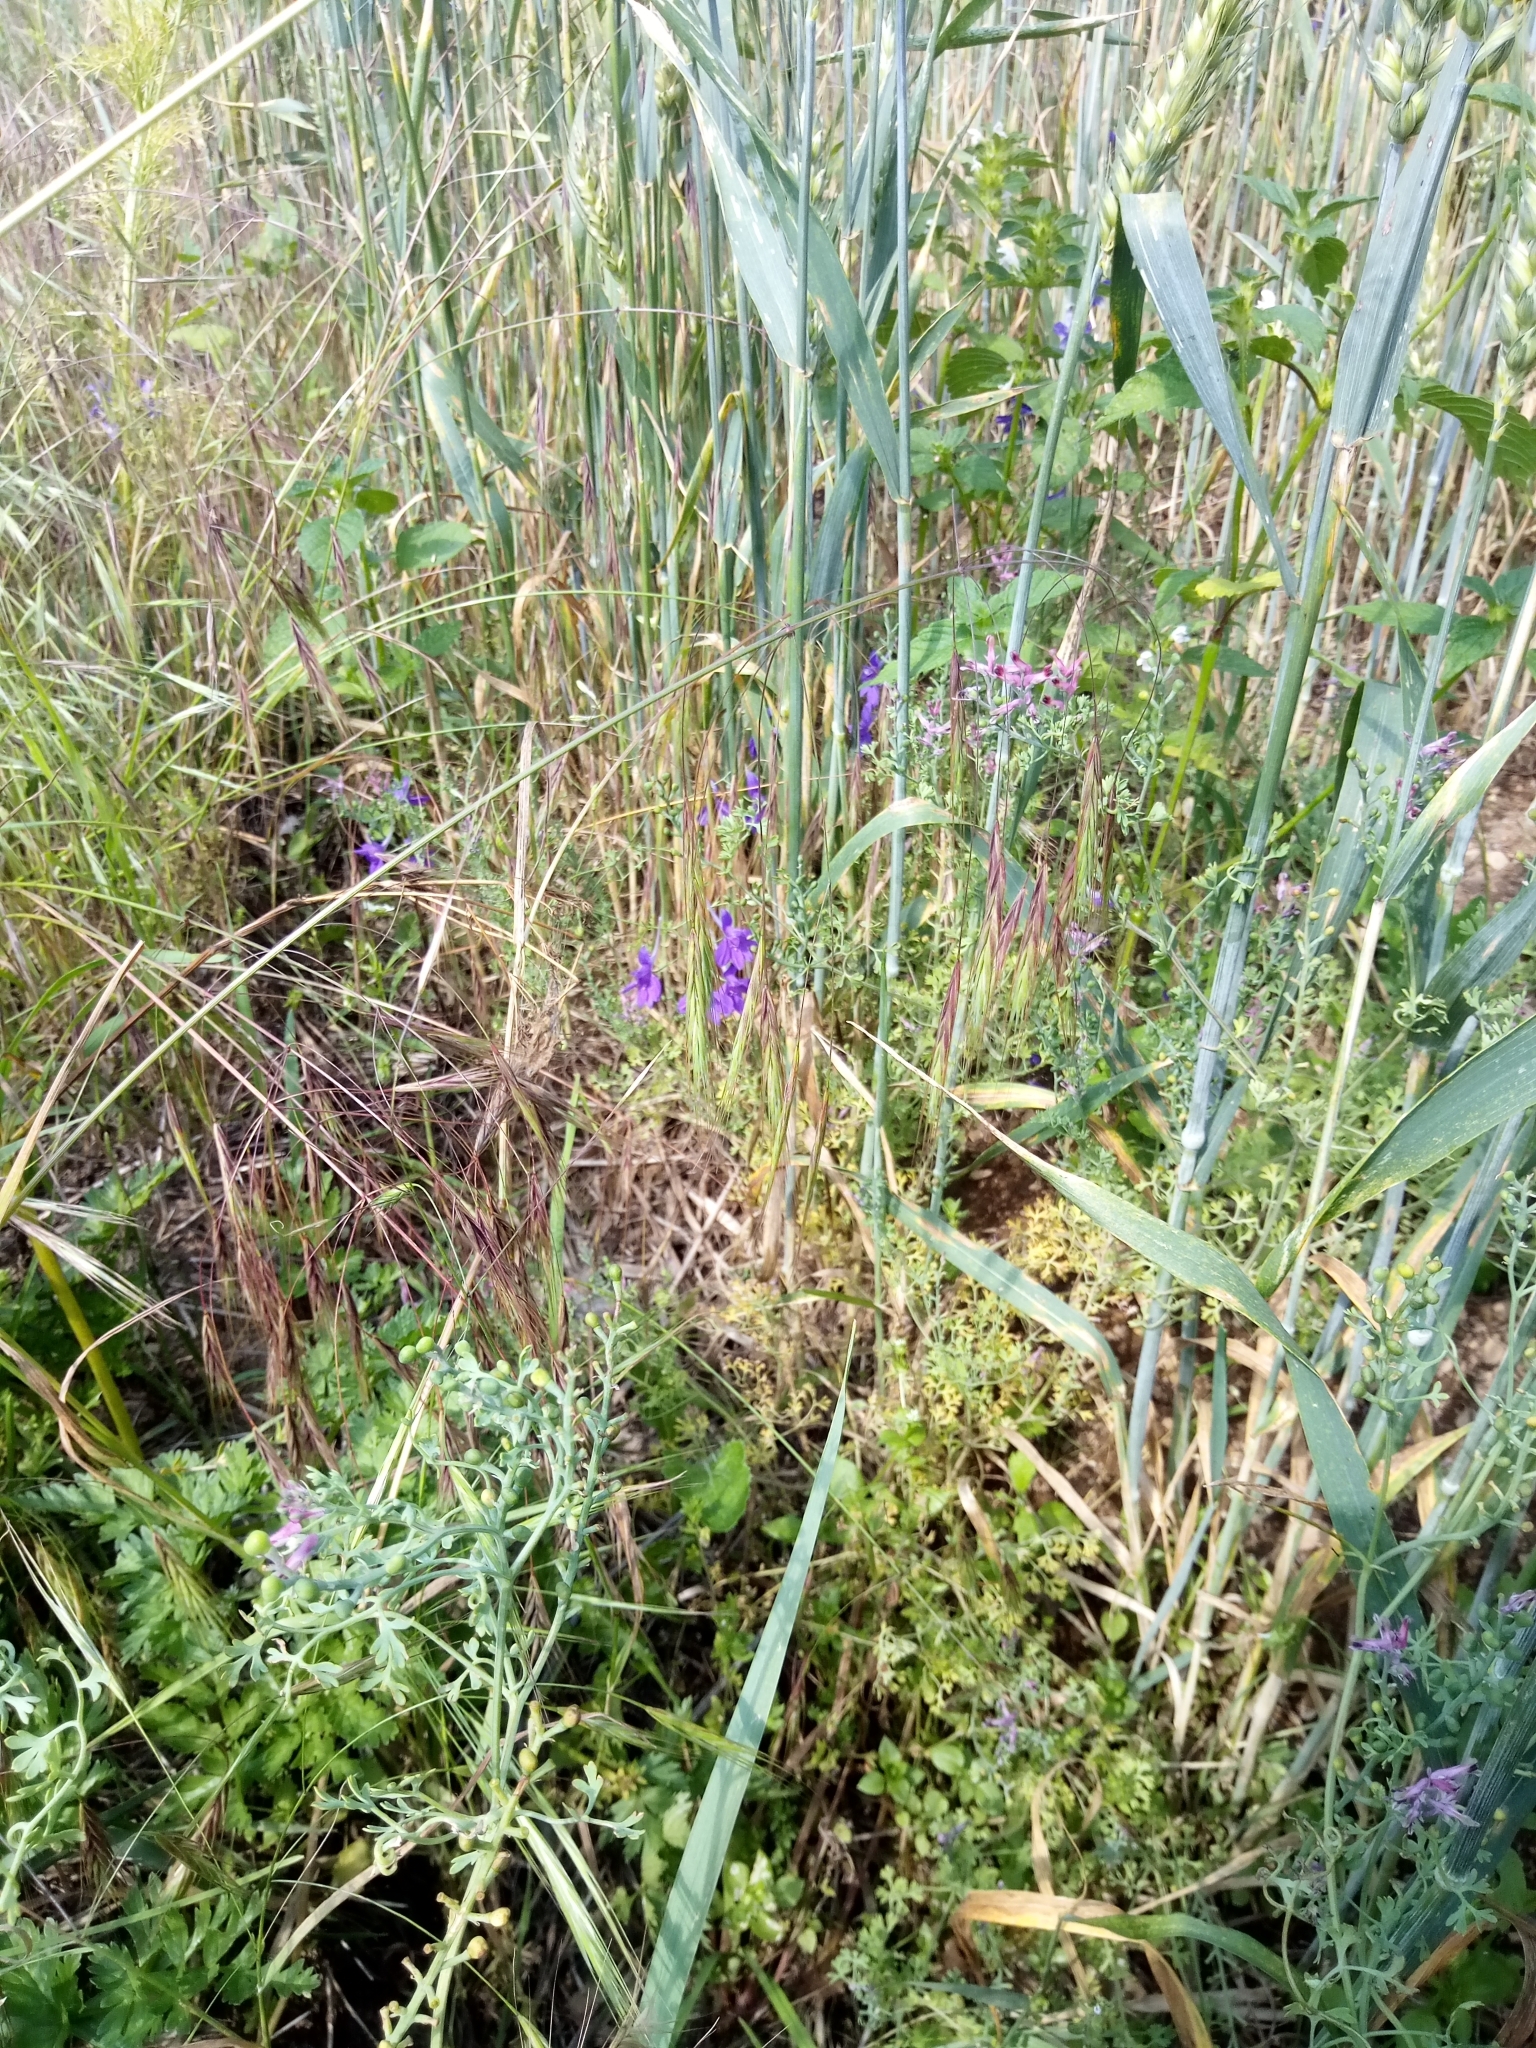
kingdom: Plantae
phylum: Tracheophyta
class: Liliopsida
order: Poales
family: Poaceae
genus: Bromus
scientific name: Bromus sterilis
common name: Poverty brome
